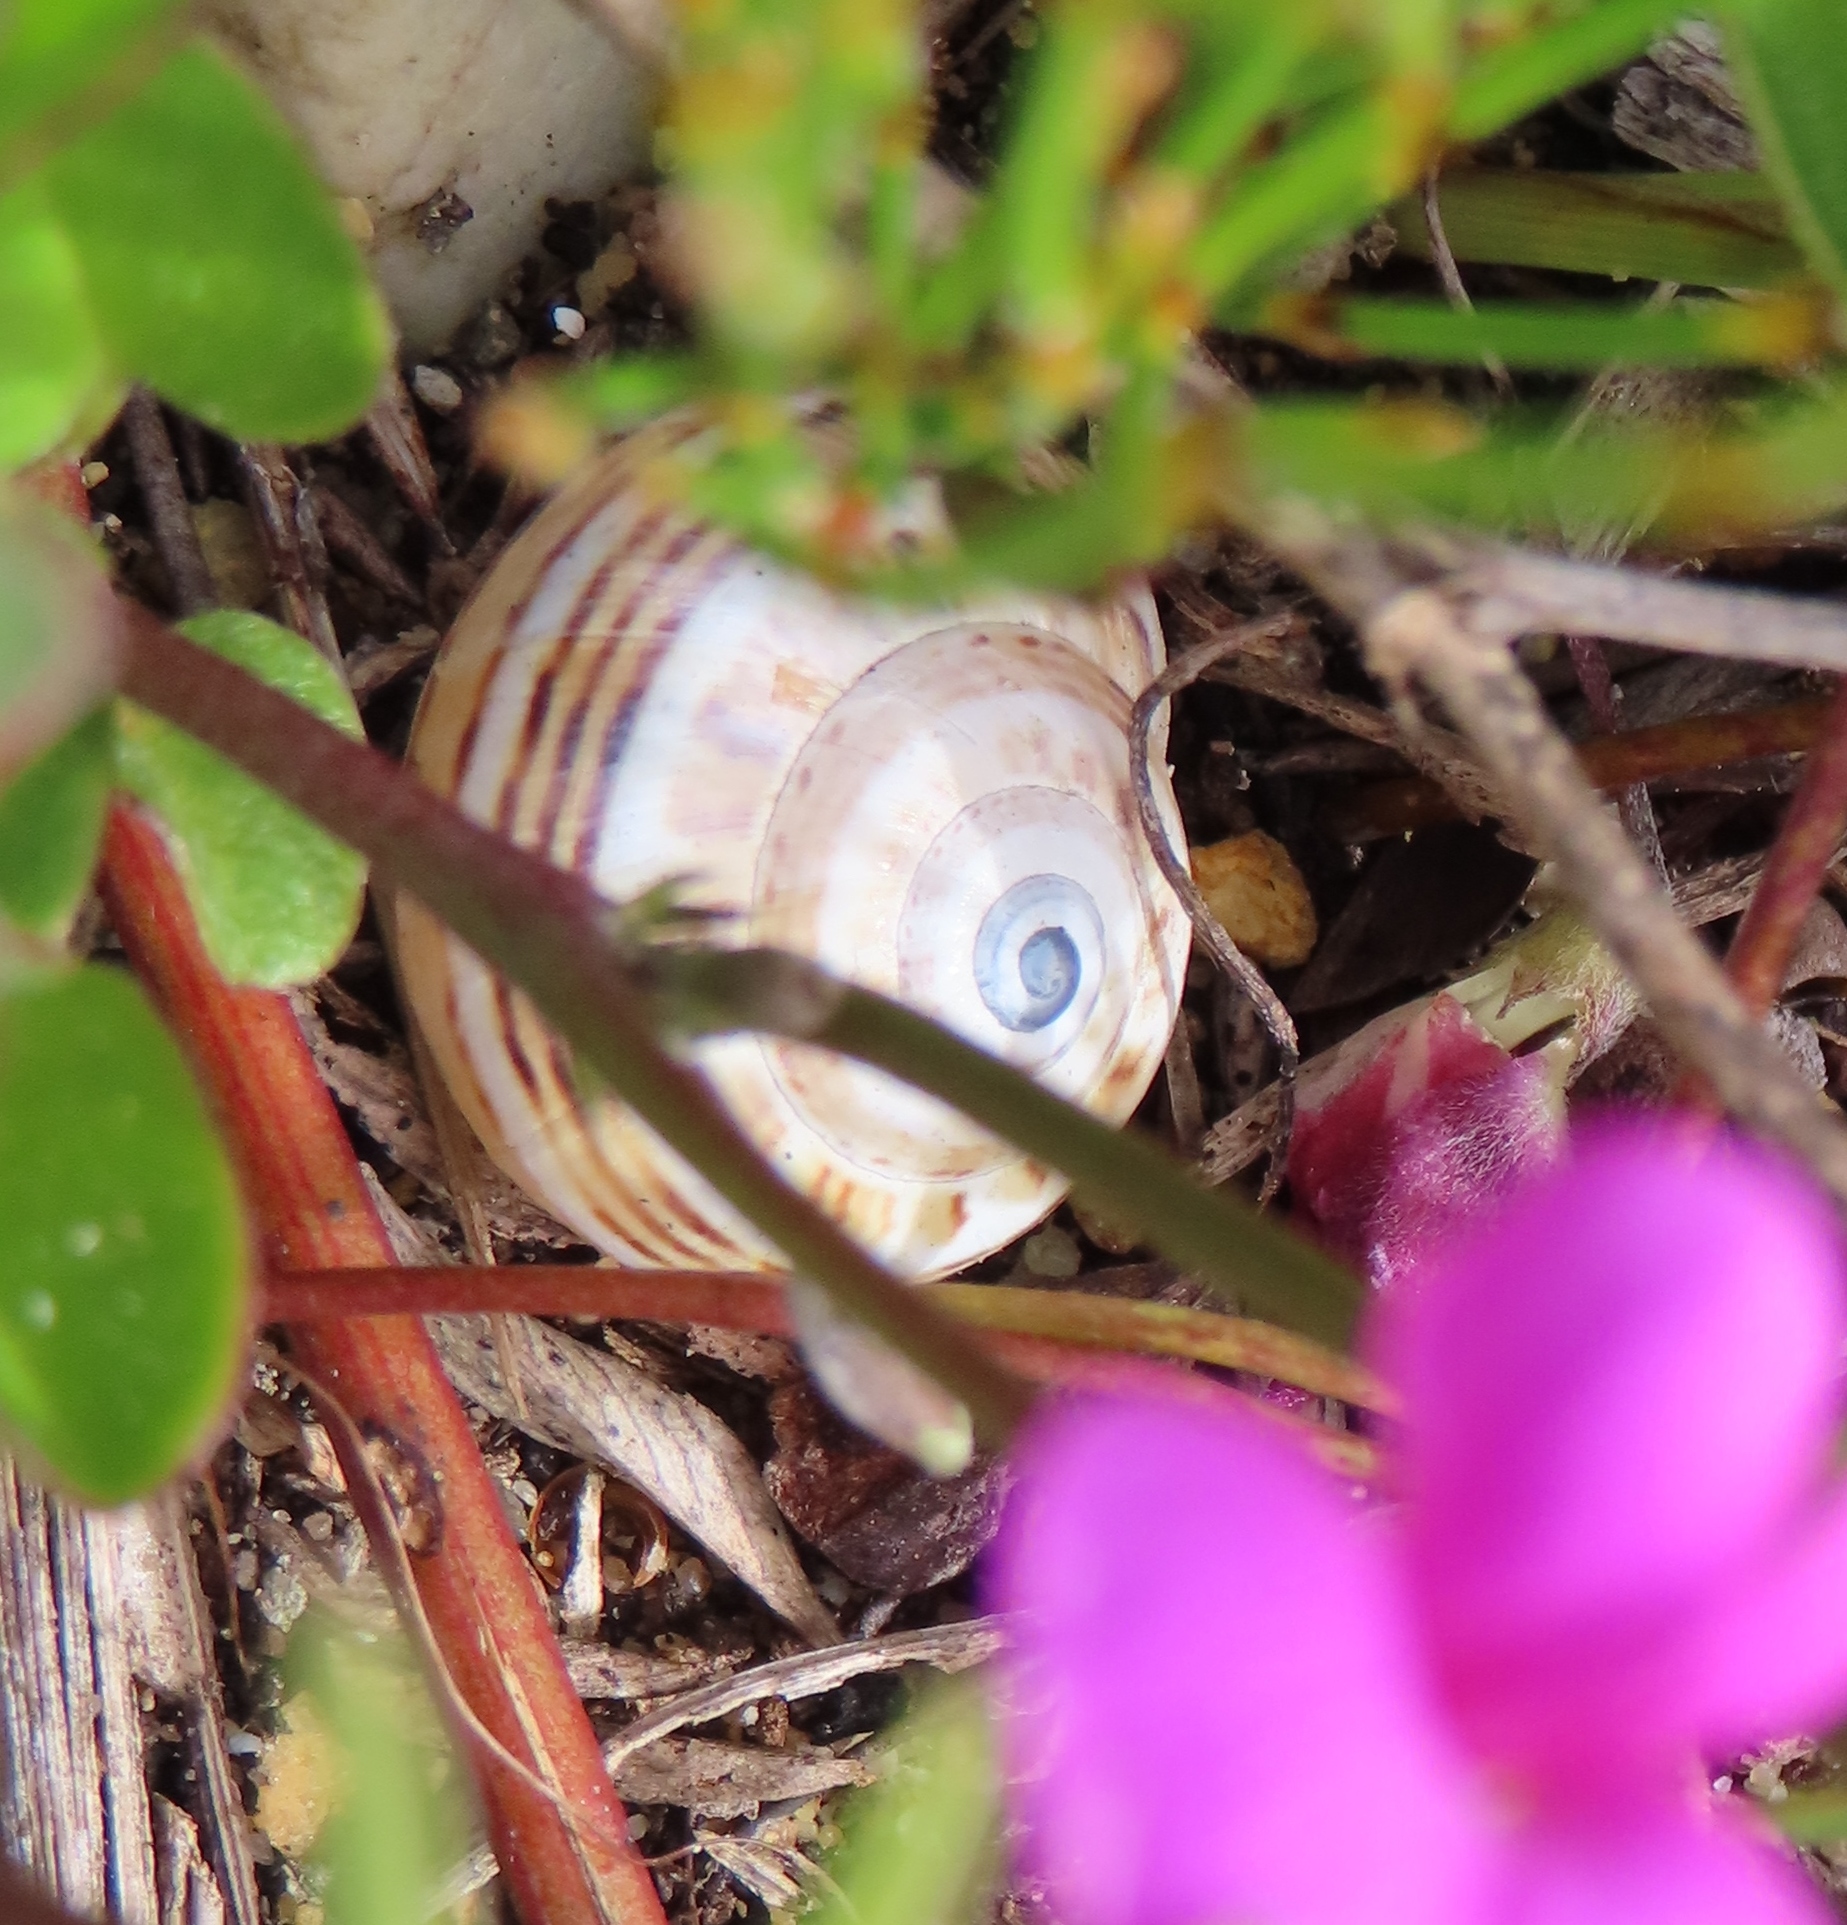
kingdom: Animalia
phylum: Mollusca
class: Gastropoda
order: Stylommatophora
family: Helicidae
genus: Theba
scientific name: Theba pisana
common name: White snail
